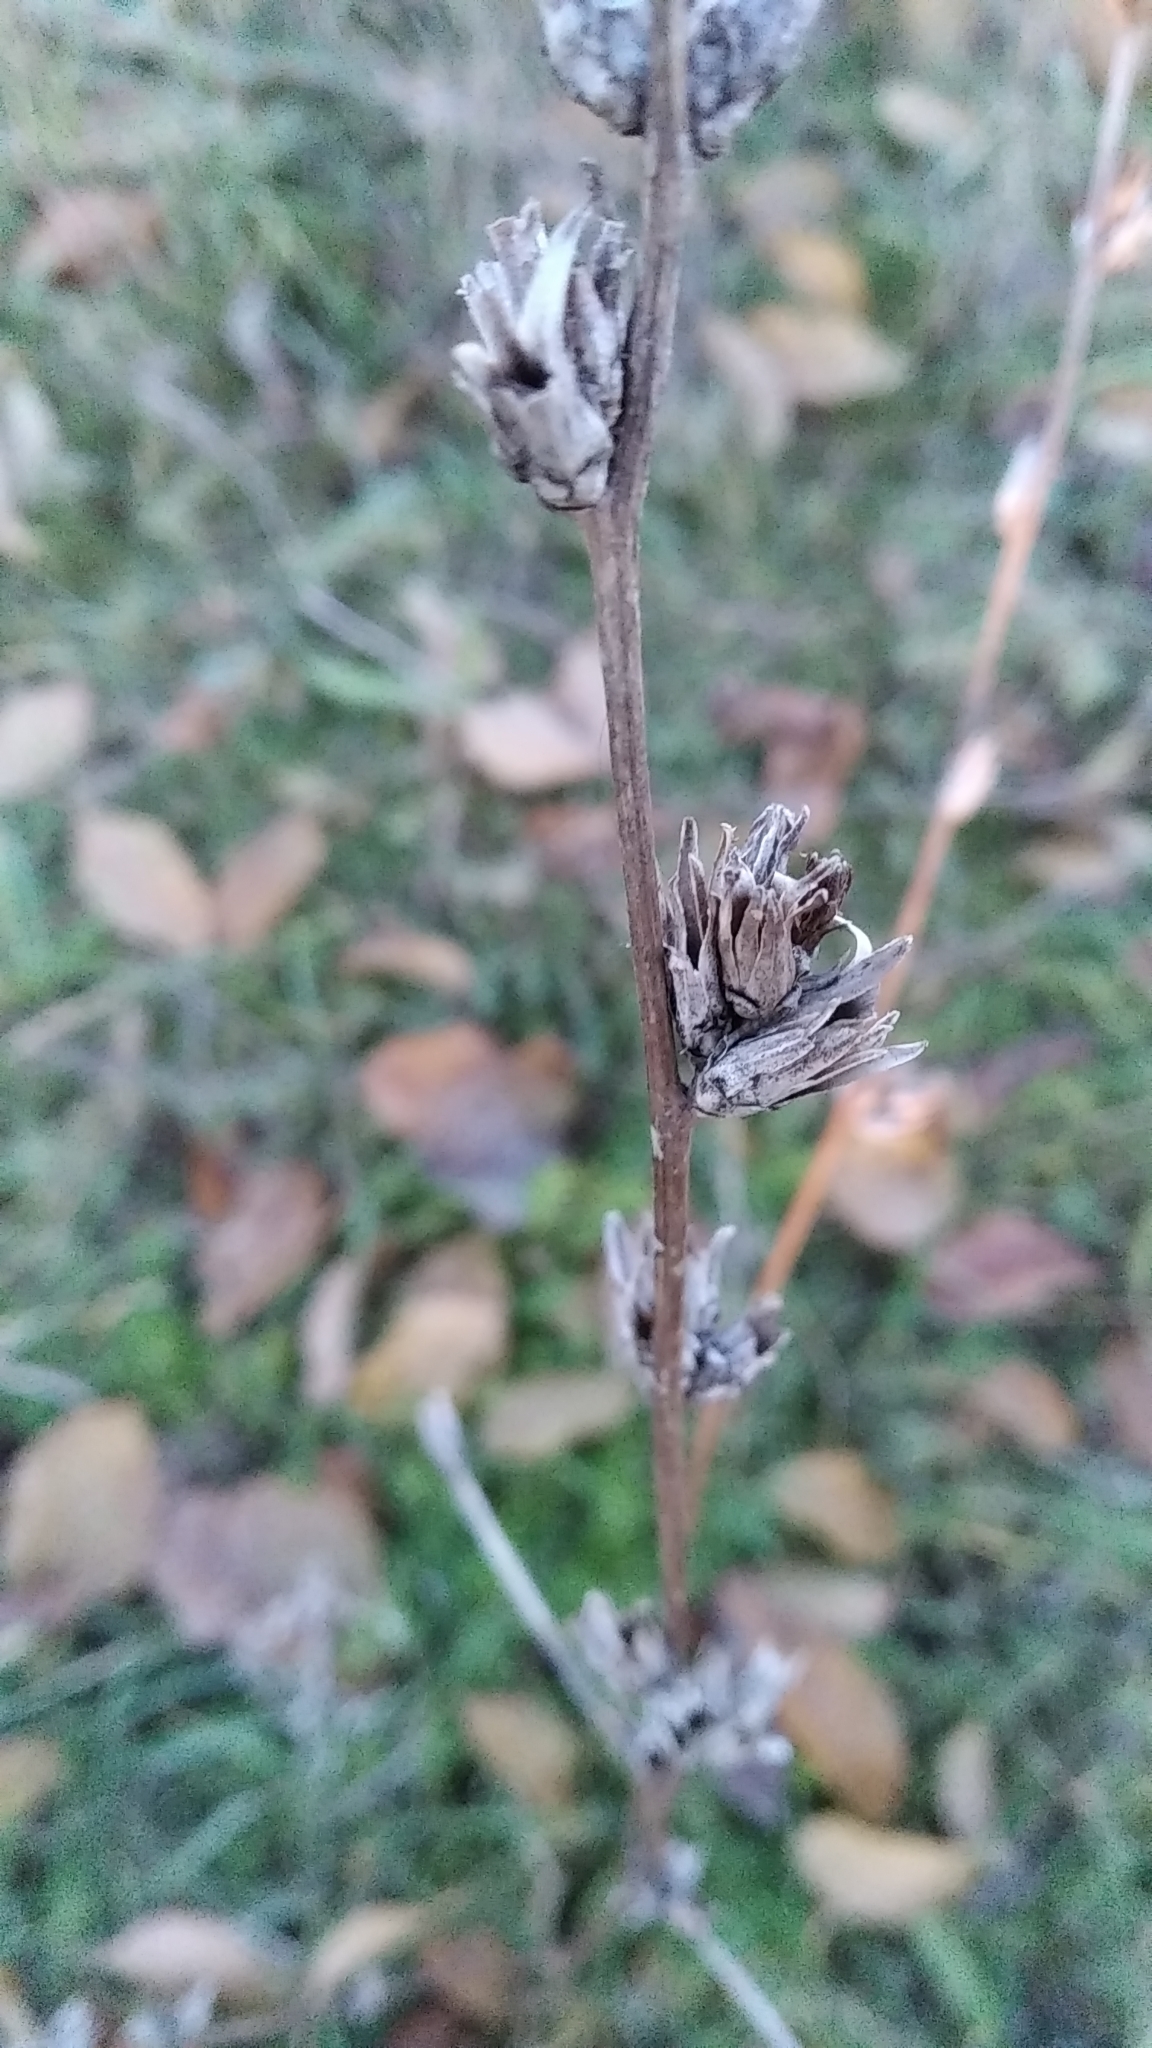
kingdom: Plantae
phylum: Tracheophyta
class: Magnoliopsida
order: Asterales
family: Asteraceae
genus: Cichorium
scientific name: Cichorium intybus
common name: Chicory
